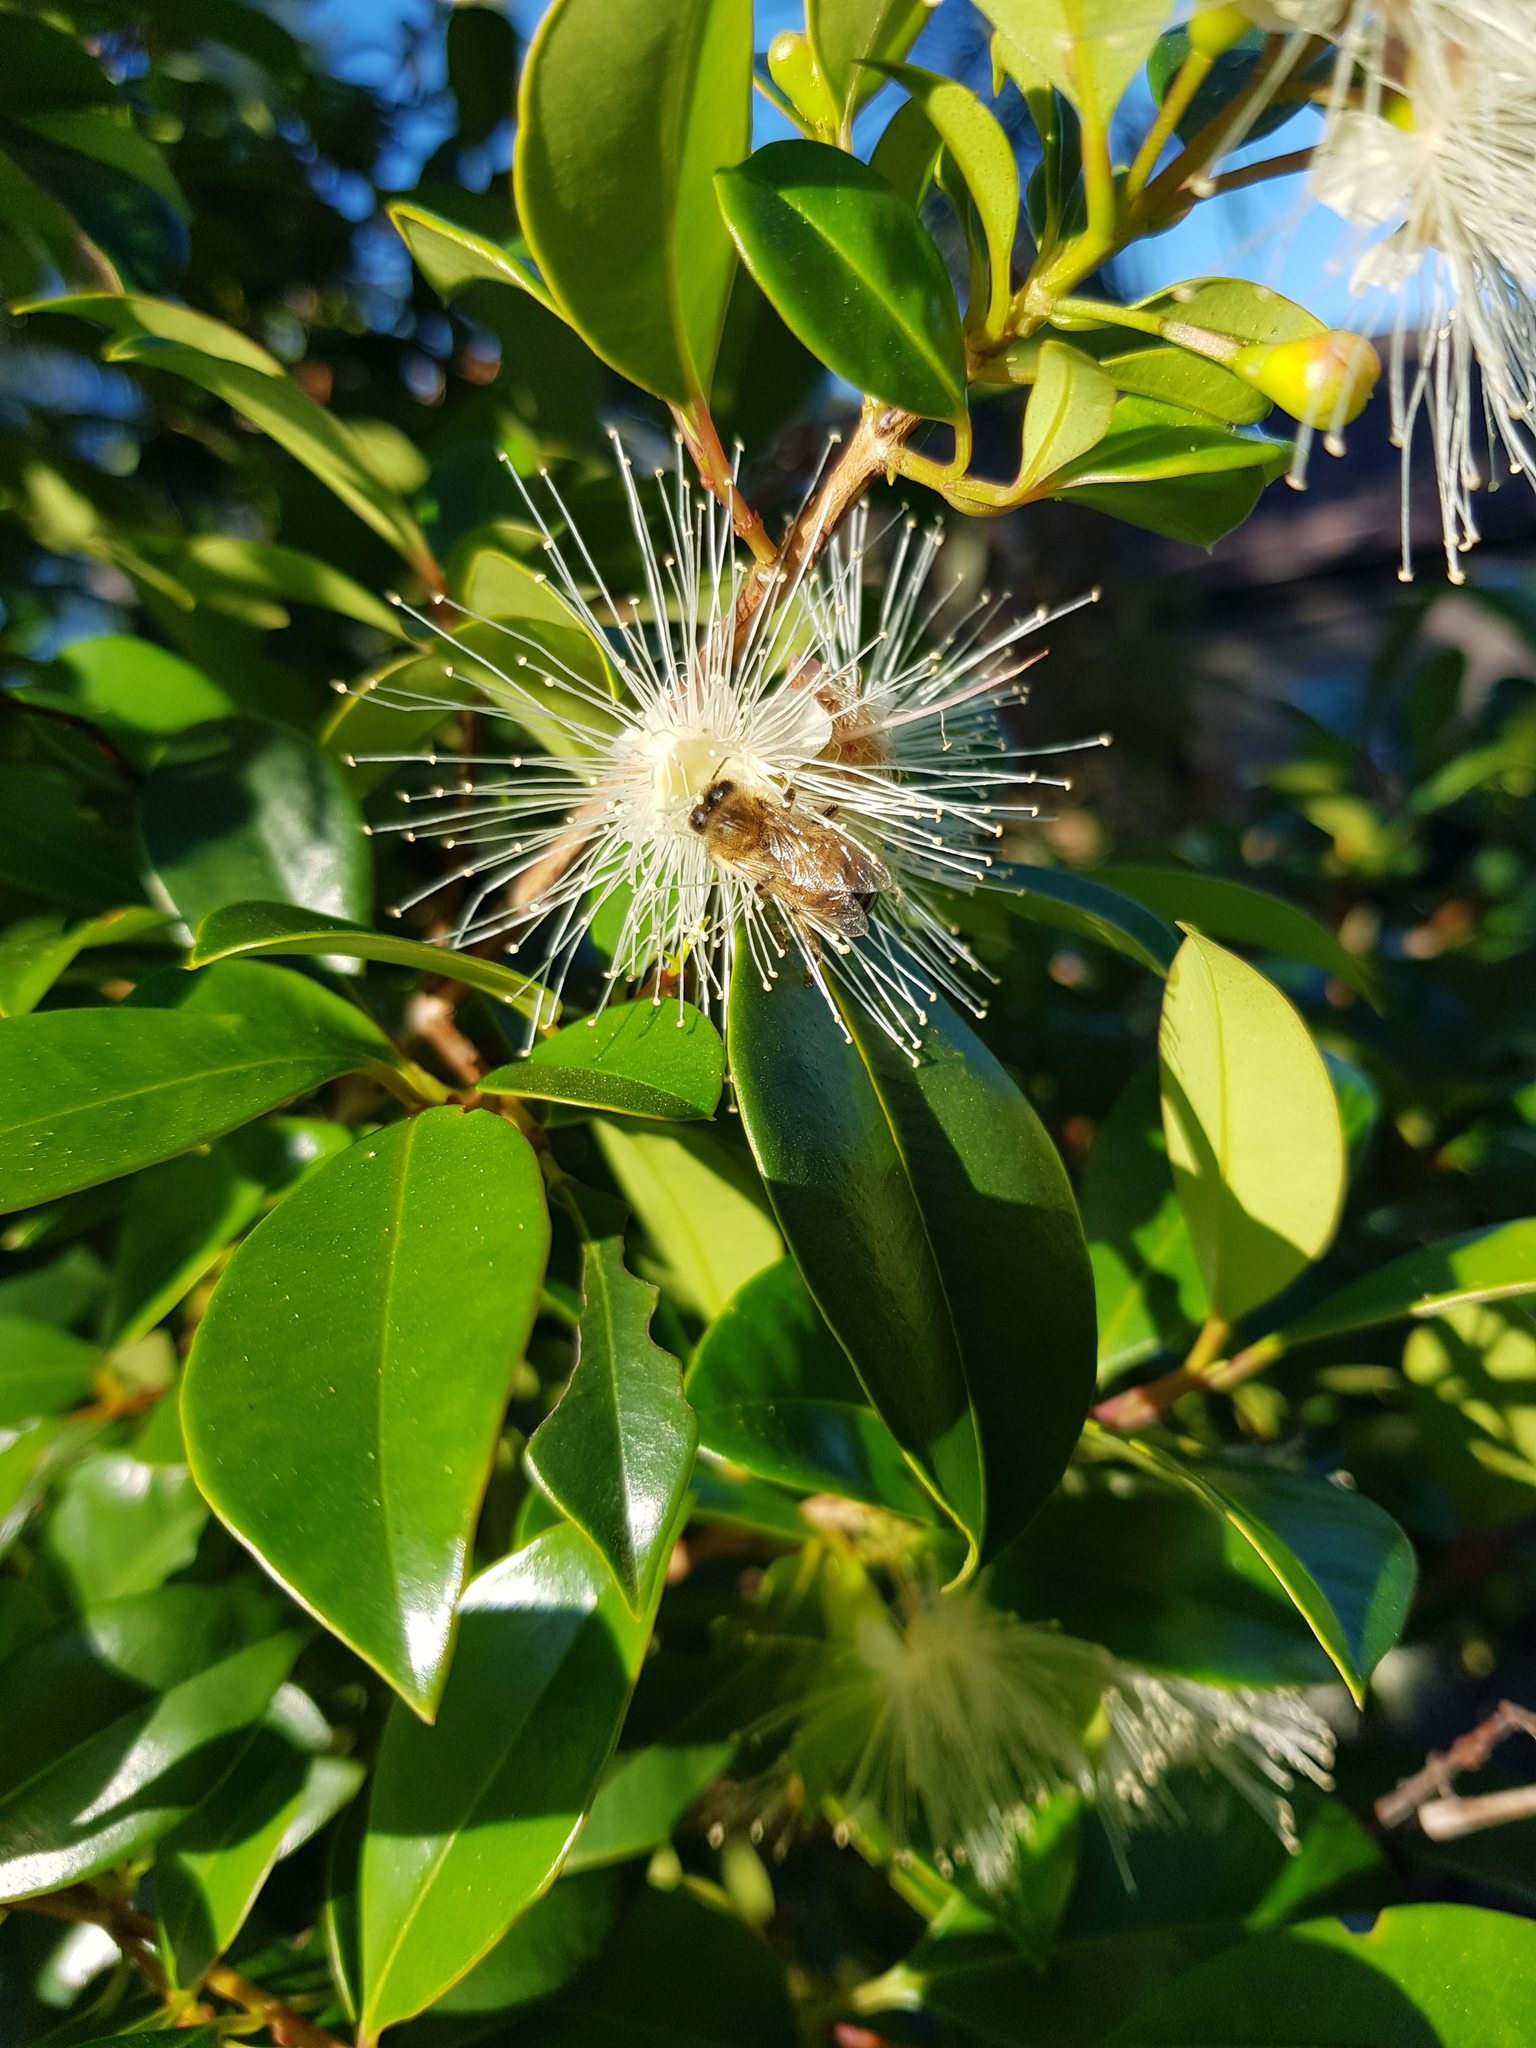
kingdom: Animalia
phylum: Arthropoda
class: Insecta
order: Hymenoptera
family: Apidae
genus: Apis
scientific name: Apis mellifera
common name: Honey bee
